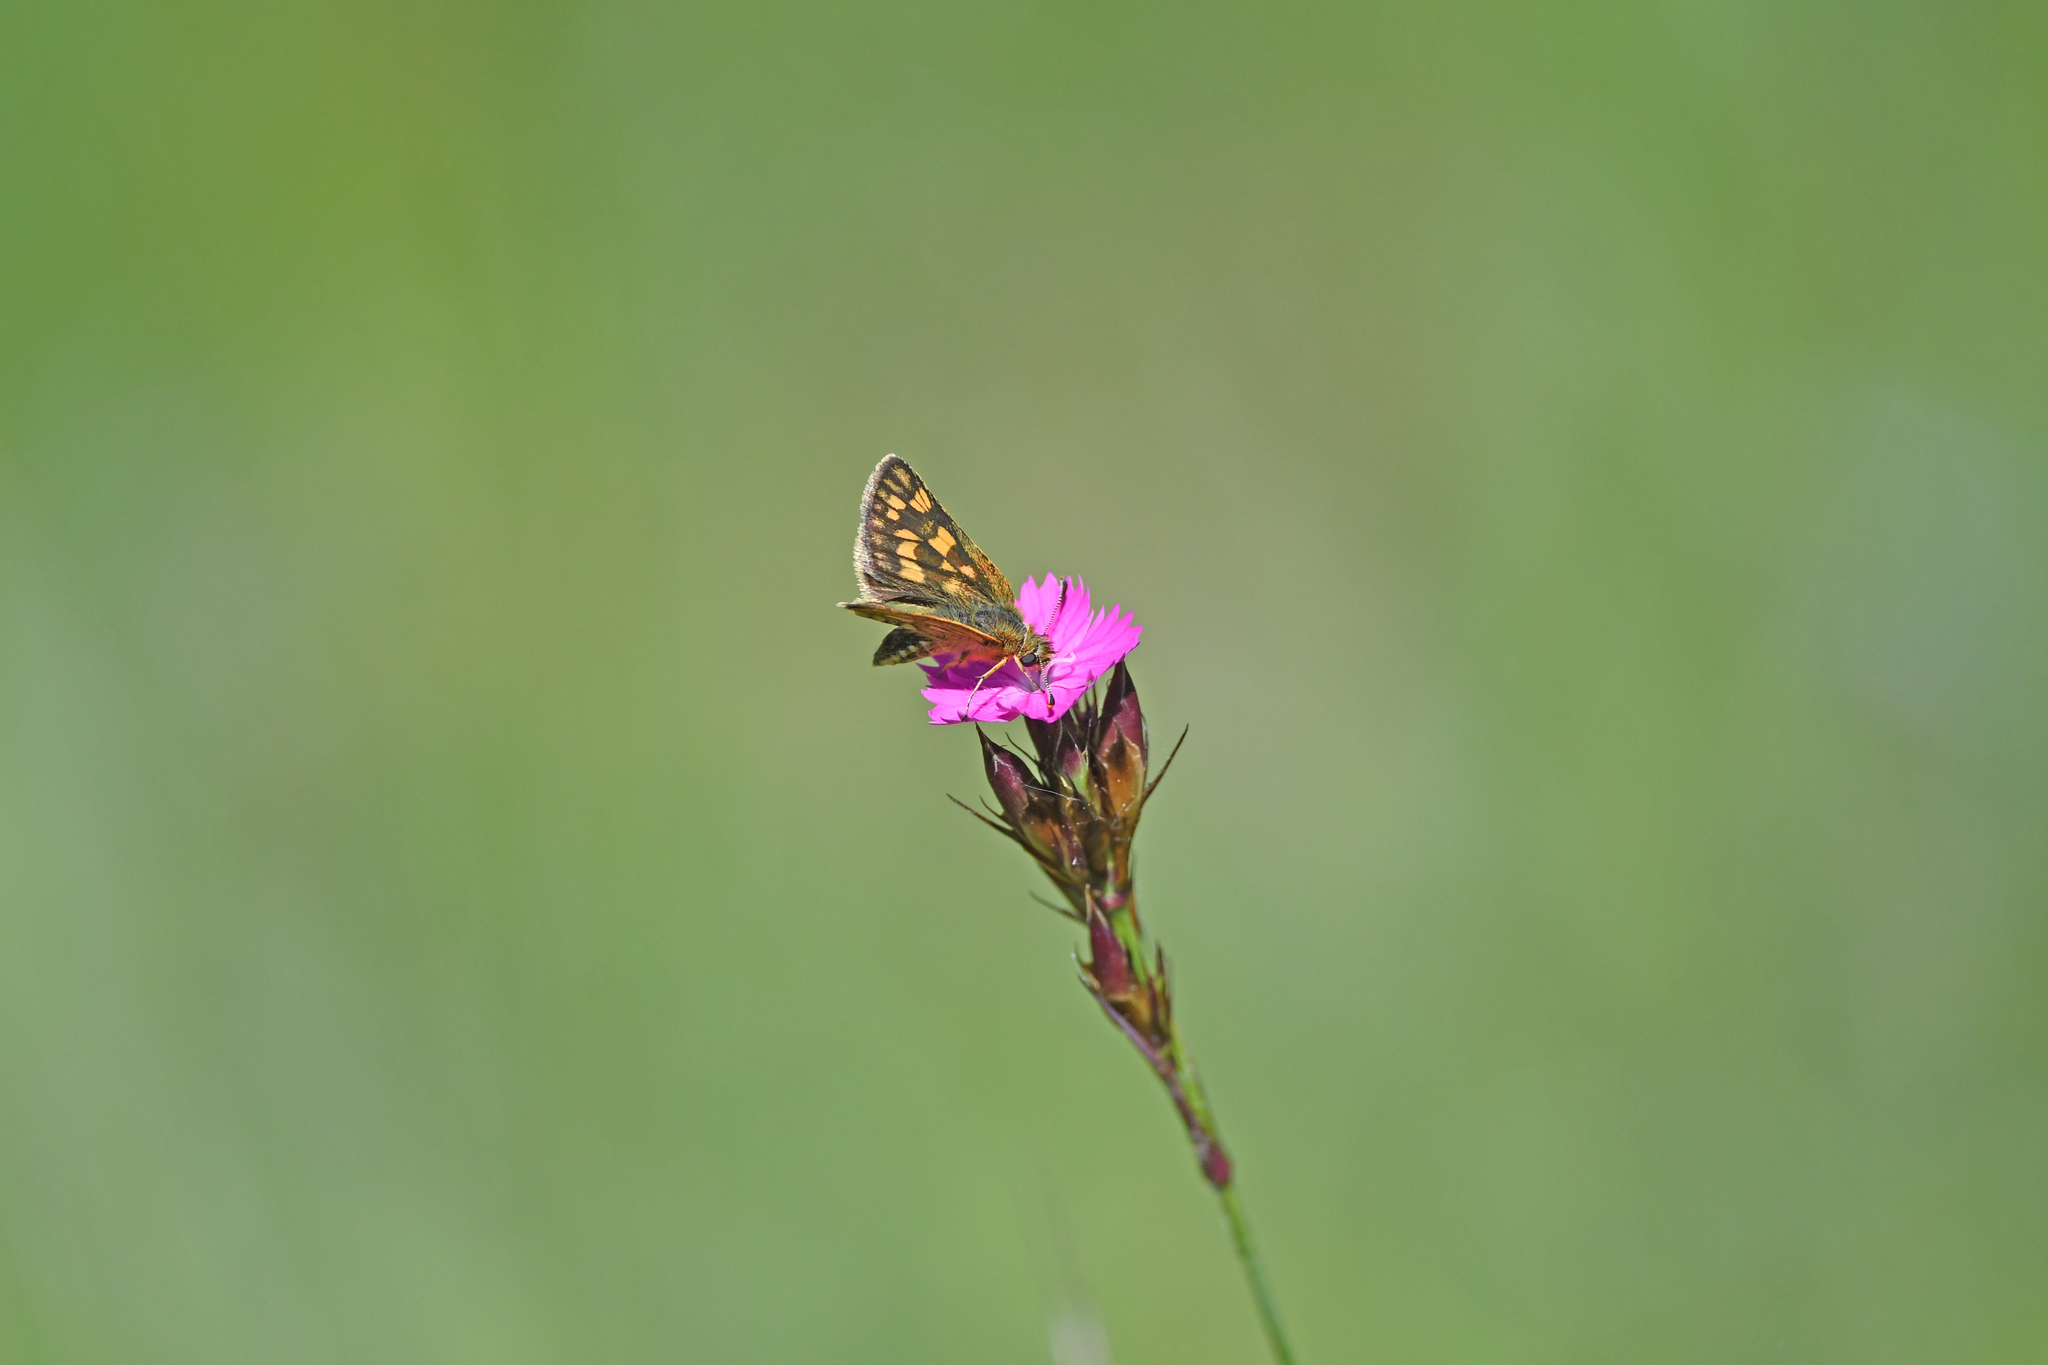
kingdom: Animalia
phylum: Arthropoda
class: Insecta
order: Lepidoptera
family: Hesperiidae
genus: Carterocephalus
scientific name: Carterocephalus palaemon
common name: Chequered skipper
